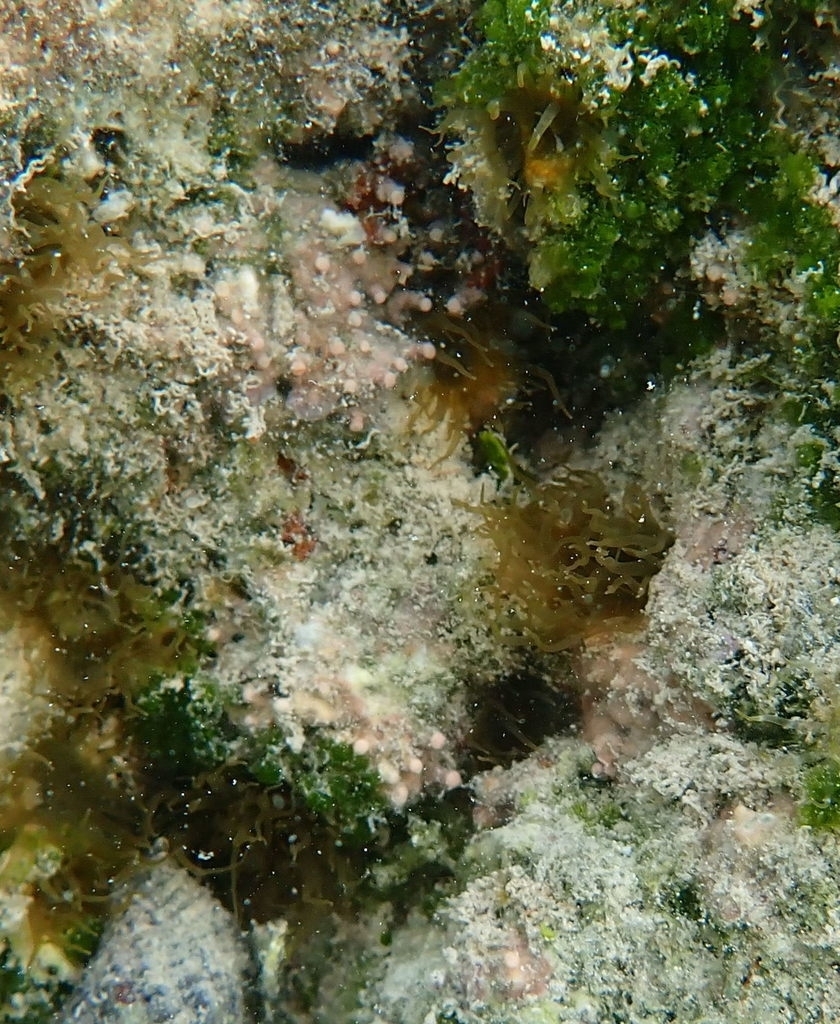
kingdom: Animalia
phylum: Cnidaria
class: Anthozoa
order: Actiniaria
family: Aiptasiidae
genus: Exaiptasia
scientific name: Exaiptasia diaphana
